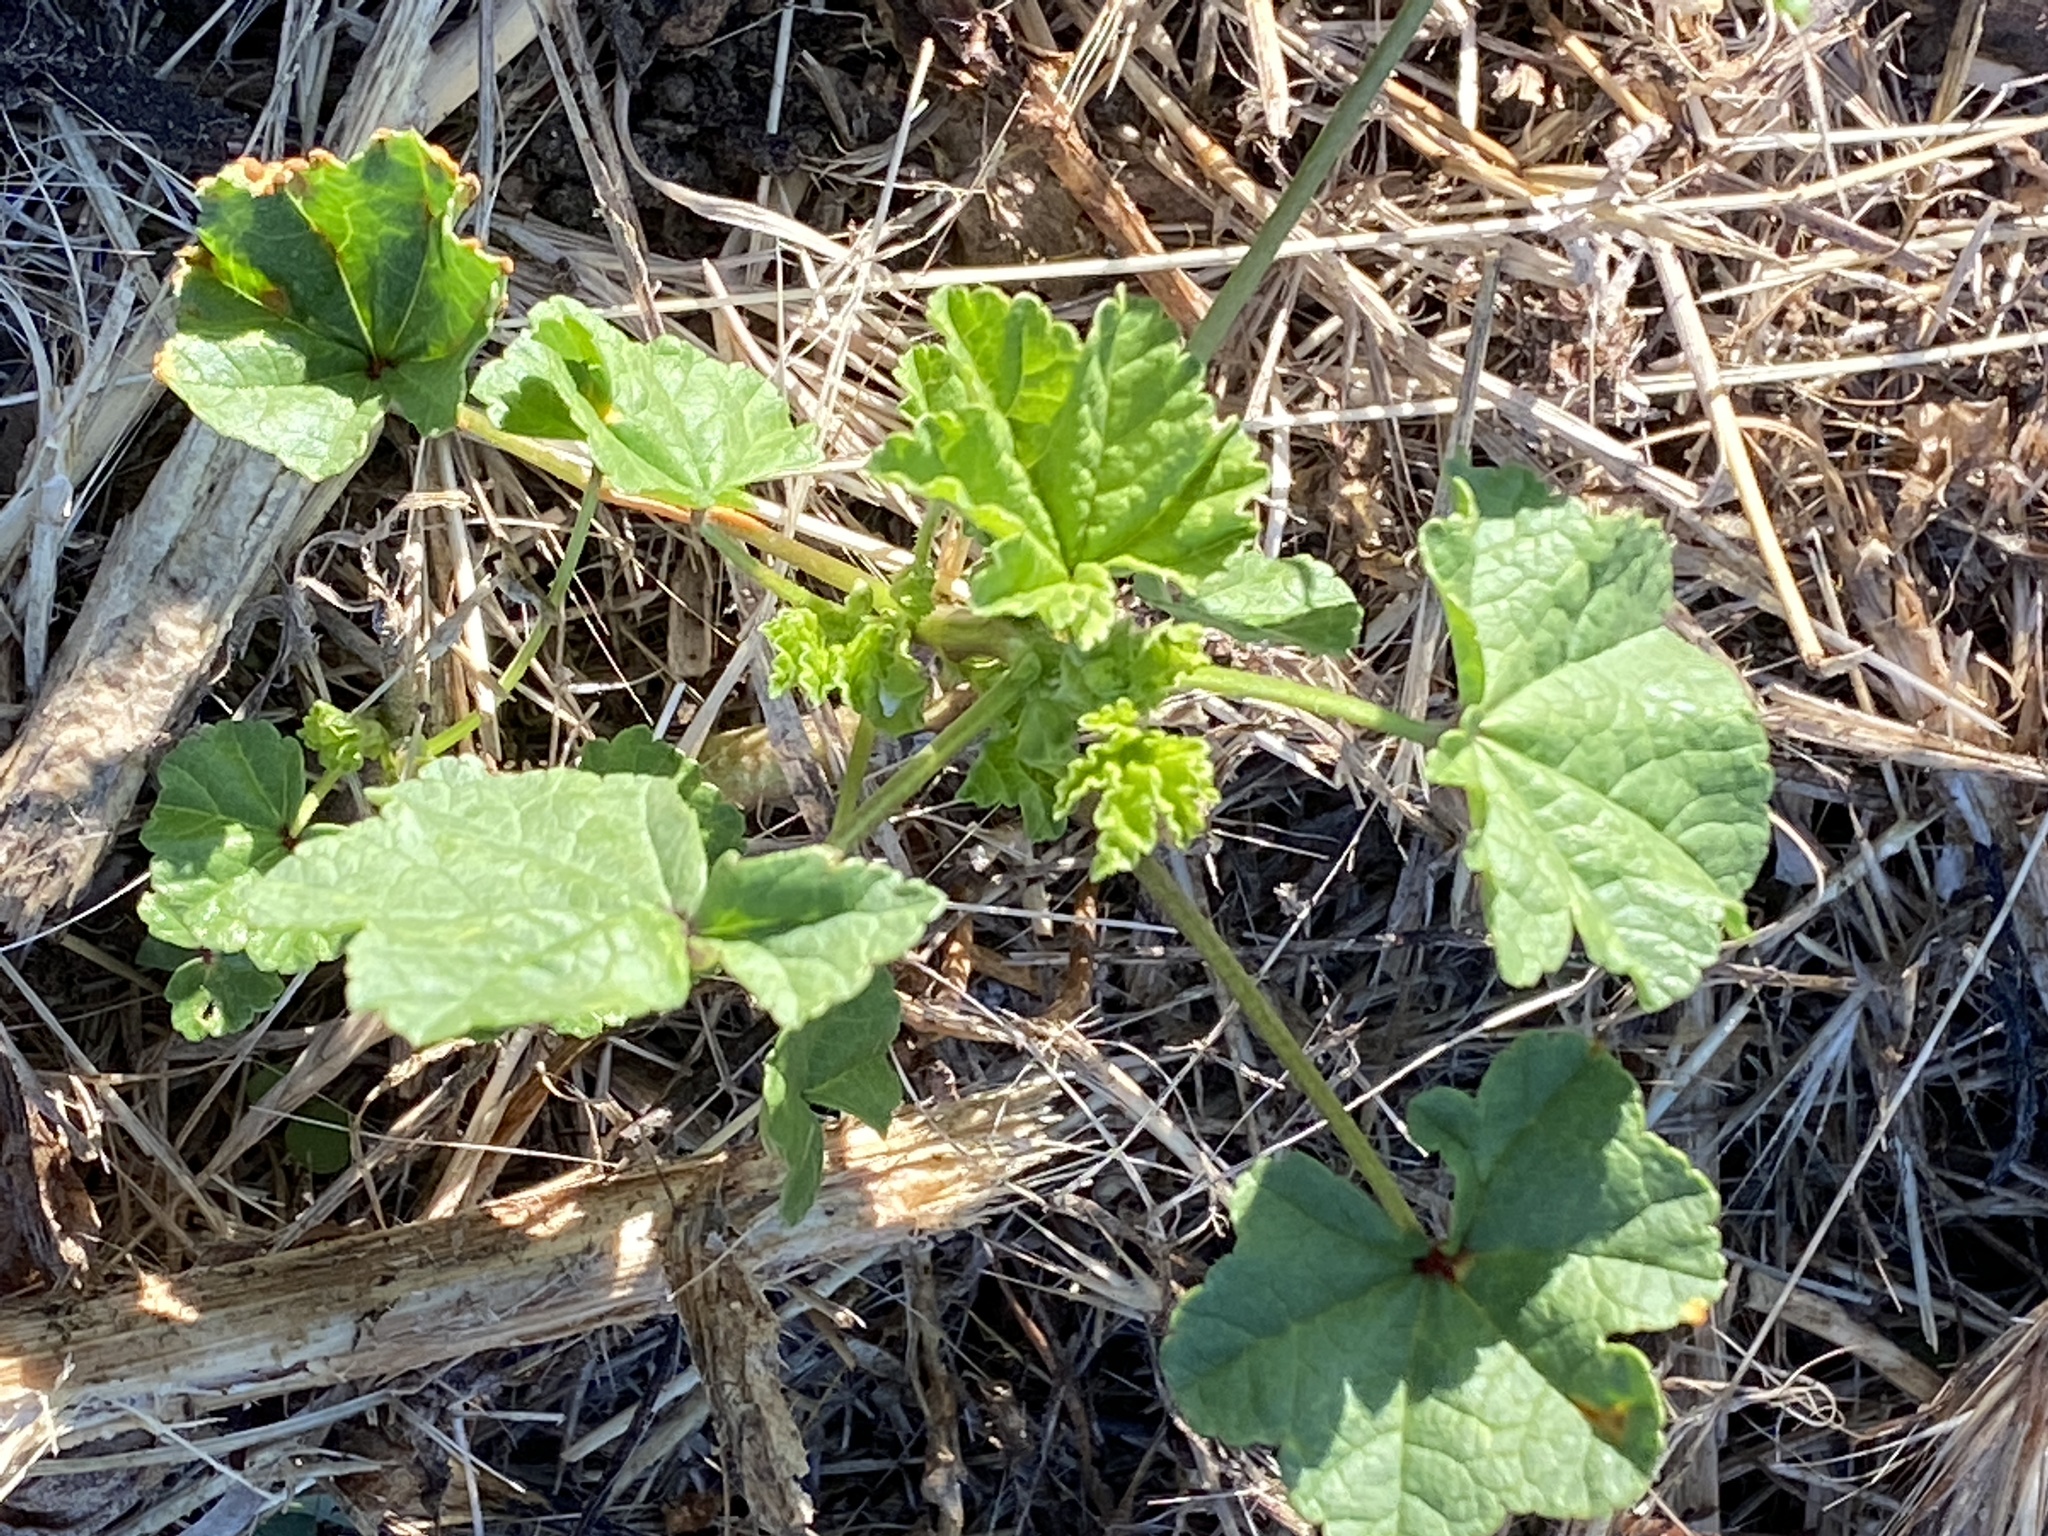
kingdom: Plantae
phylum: Tracheophyta
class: Magnoliopsida
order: Malvales
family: Malvaceae
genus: Malva
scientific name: Malva parviflora
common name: Least mallow
